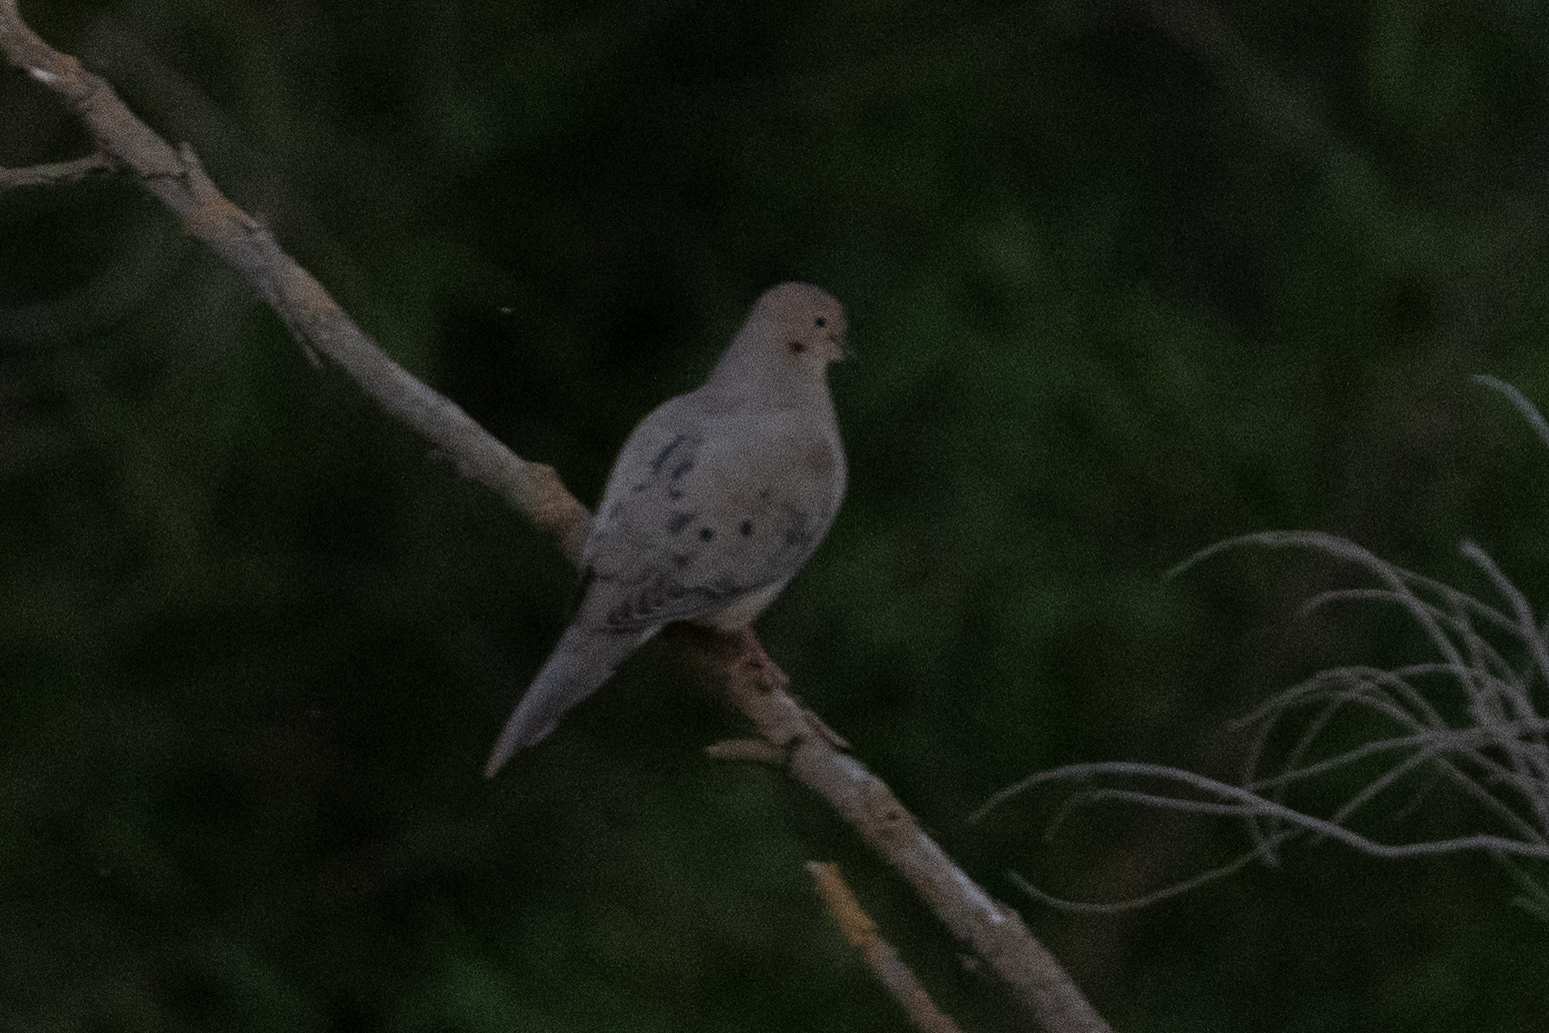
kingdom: Animalia
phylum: Chordata
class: Aves
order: Columbiformes
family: Columbidae
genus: Zenaida
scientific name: Zenaida macroura
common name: Mourning dove
